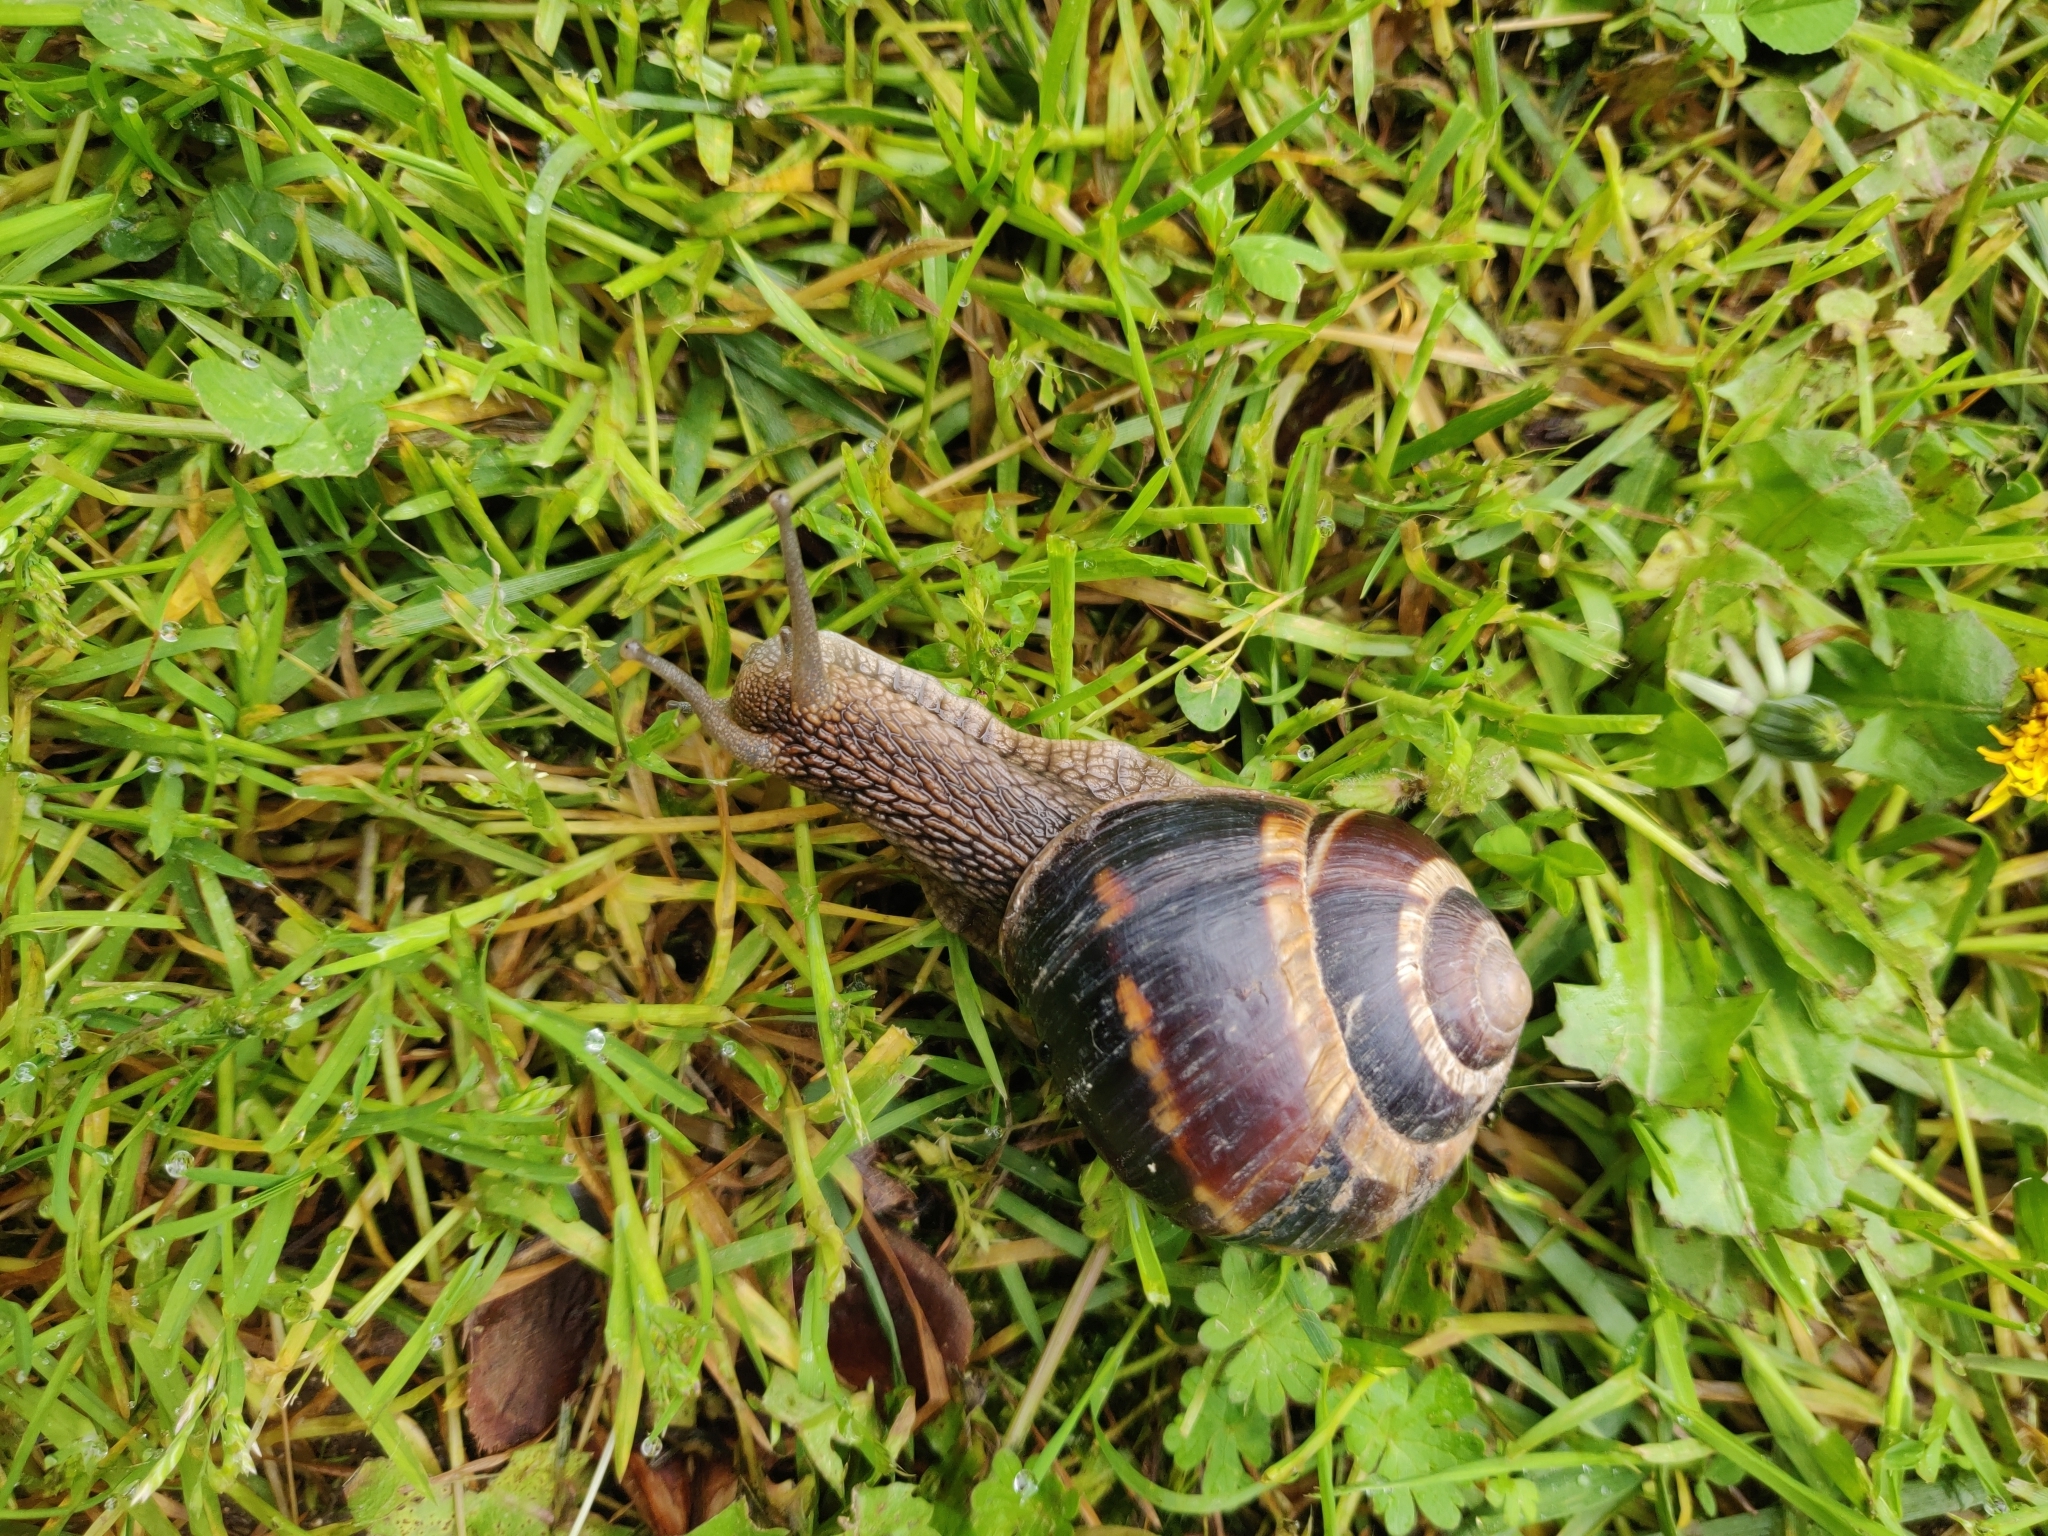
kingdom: Animalia
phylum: Mollusca
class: Gastropoda
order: Stylommatophora
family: Helicidae
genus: Helix
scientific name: Helix lucorum
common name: Turkish snail
